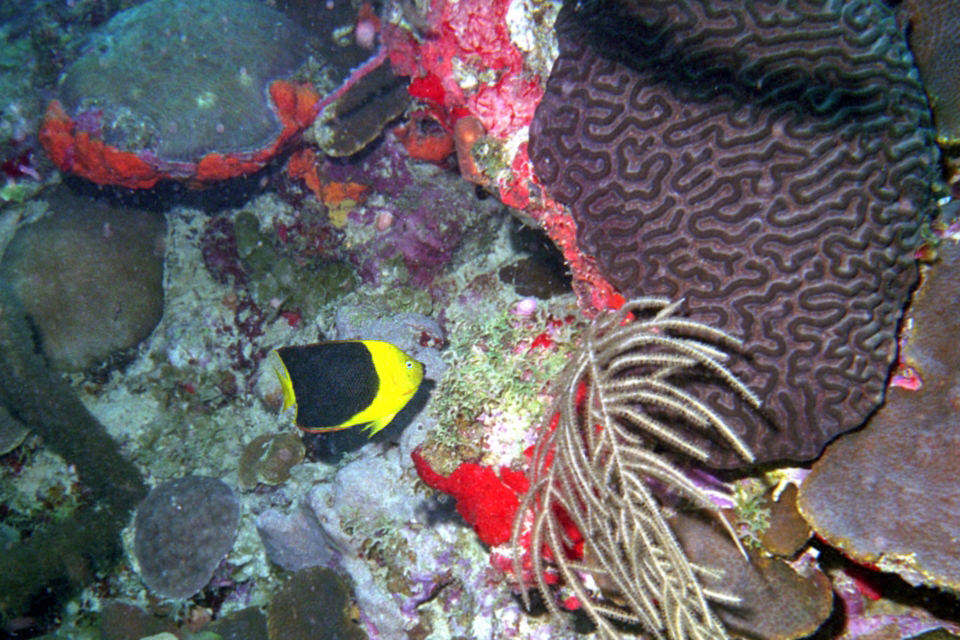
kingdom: Animalia
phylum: Chordata
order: Perciformes
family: Pomacanthidae
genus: Holacanthus
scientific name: Holacanthus tricolor
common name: Rock beauty
